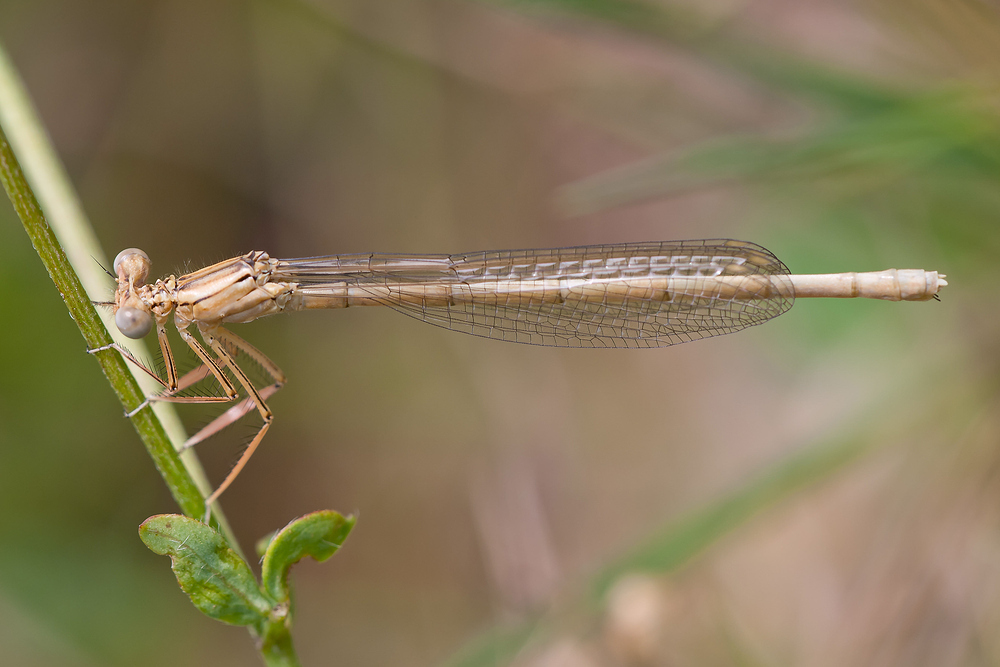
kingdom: Animalia
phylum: Arthropoda
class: Insecta
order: Odonata
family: Platycnemididae
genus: Platycnemis
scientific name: Platycnemis pennipes
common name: White-legged damselfly
